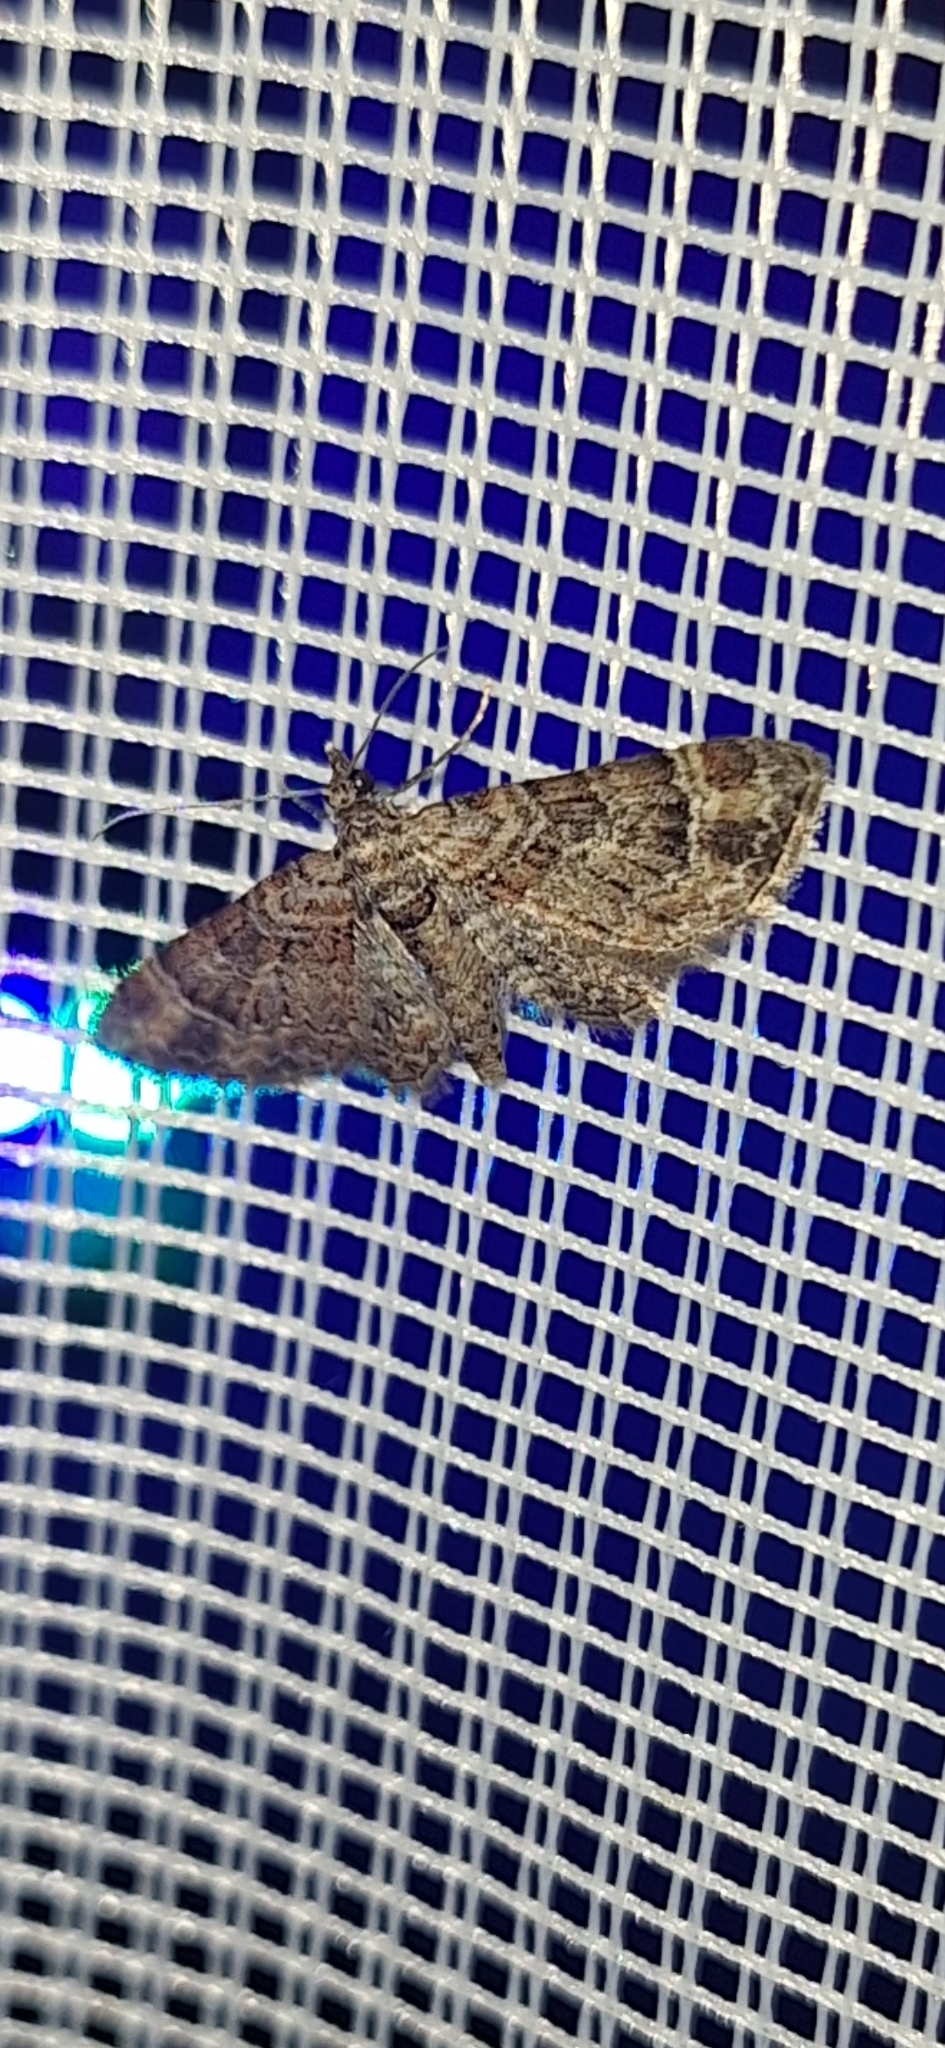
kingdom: Animalia
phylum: Arthropoda
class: Insecta
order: Lepidoptera
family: Geometridae
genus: Gymnoscelis
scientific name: Gymnoscelis rufifasciata
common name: Double-striped pug
